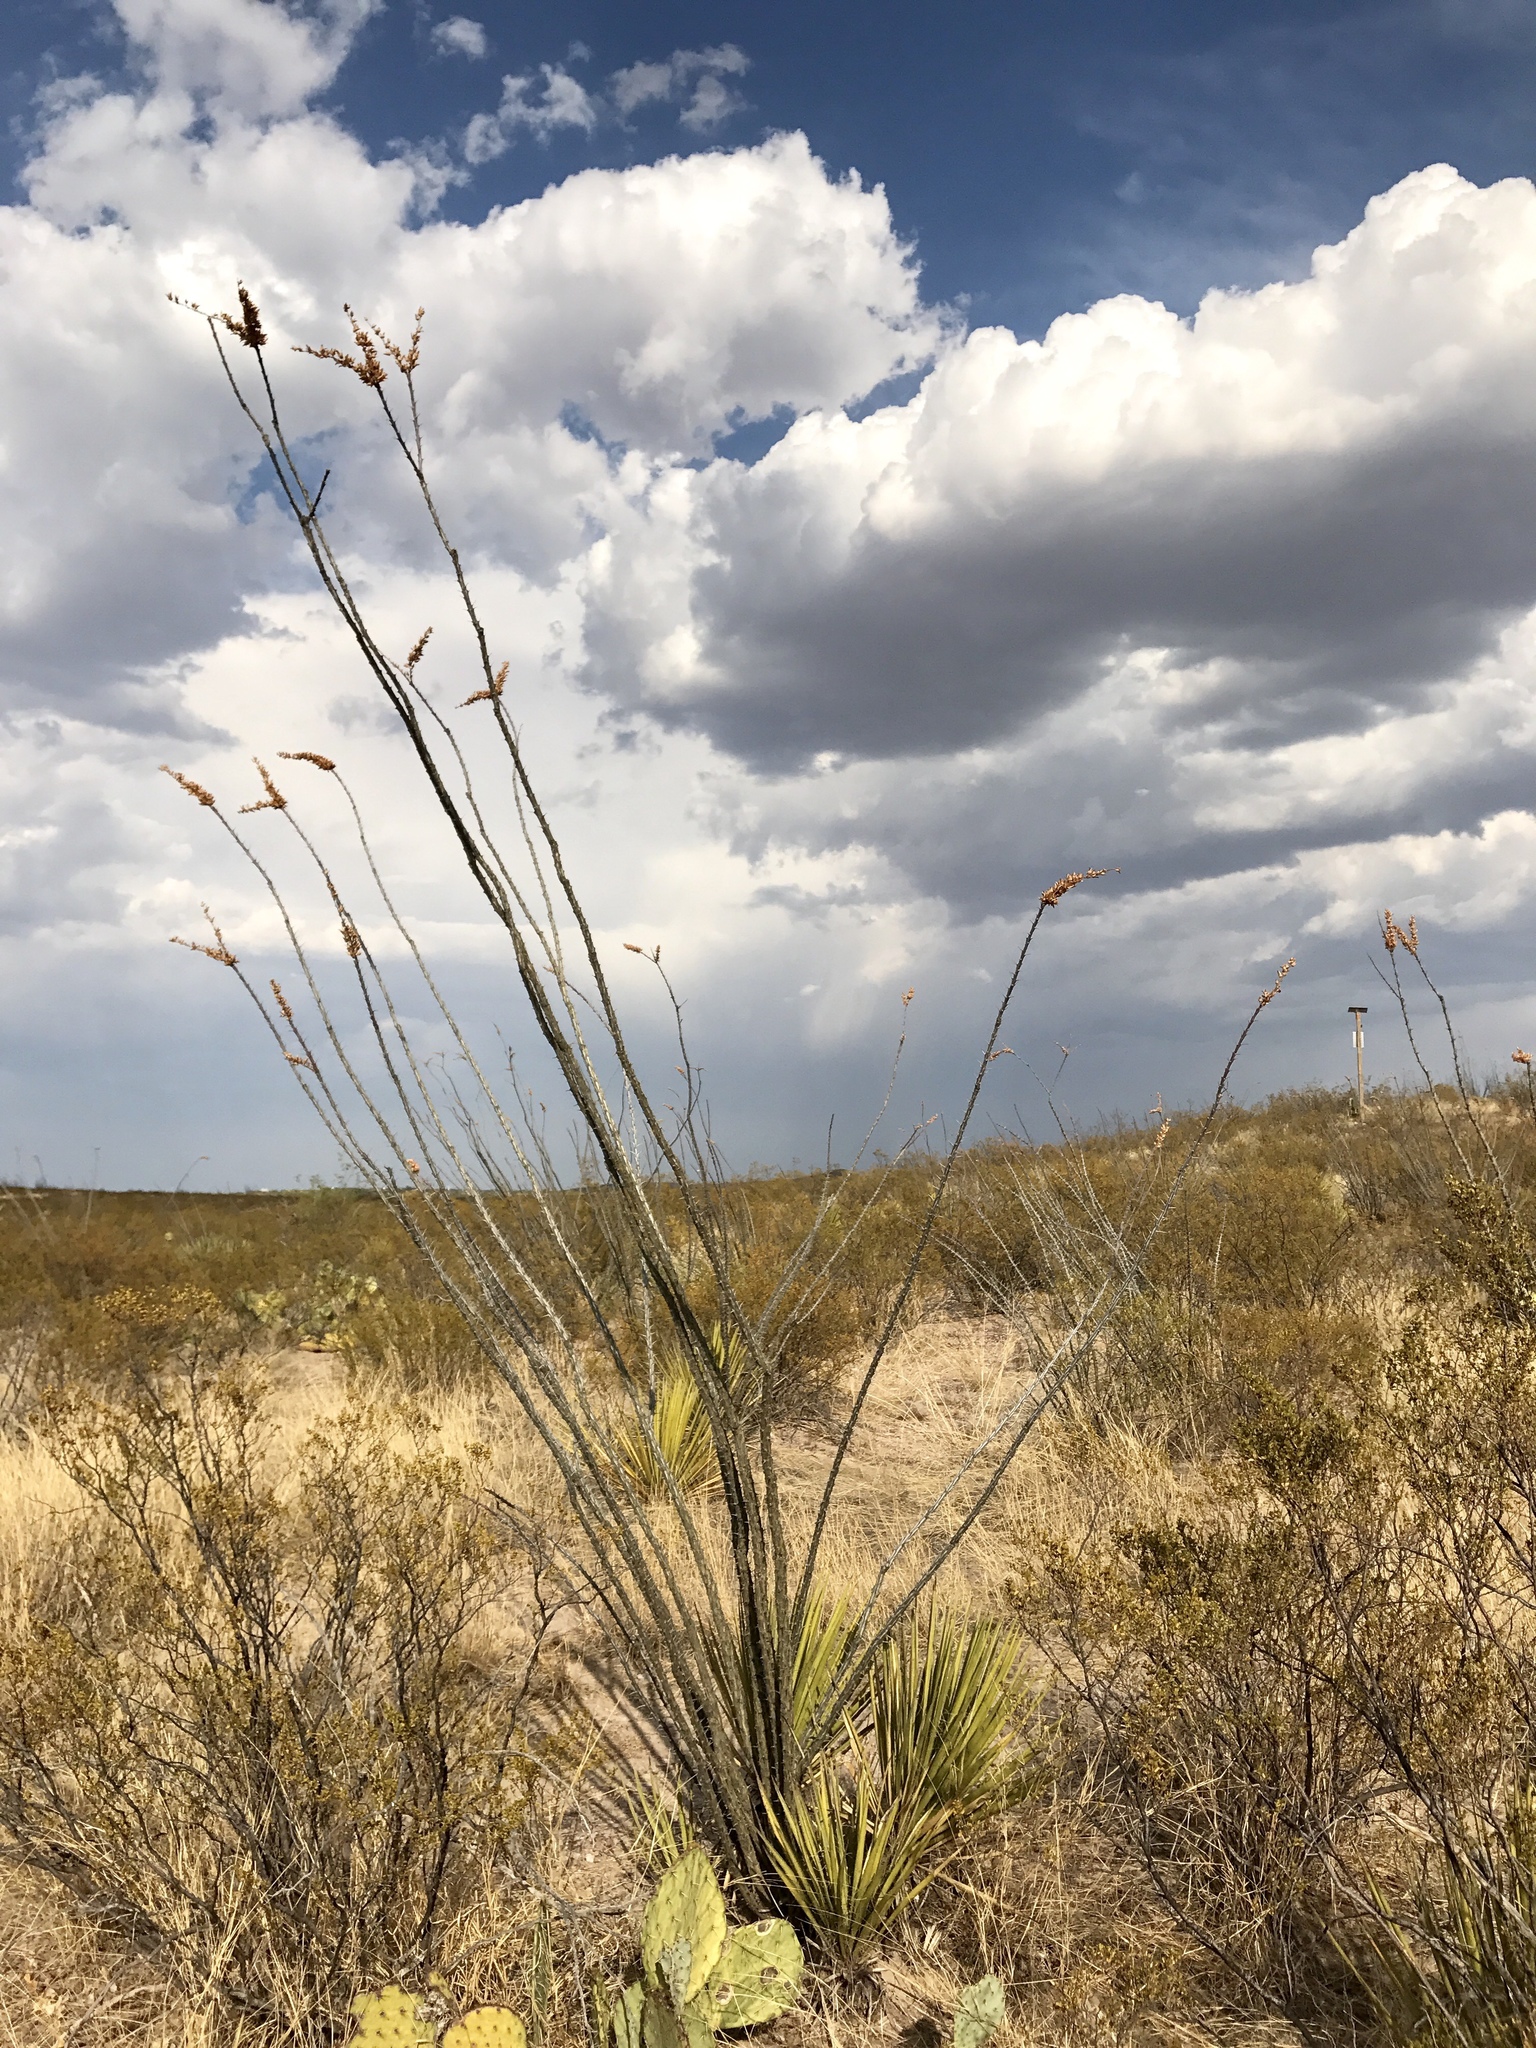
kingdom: Plantae
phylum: Tracheophyta
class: Magnoliopsida
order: Ericales
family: Fouquieriaceae
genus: Fouquieria
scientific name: Fouquieria splendens
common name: Vine-cactus
